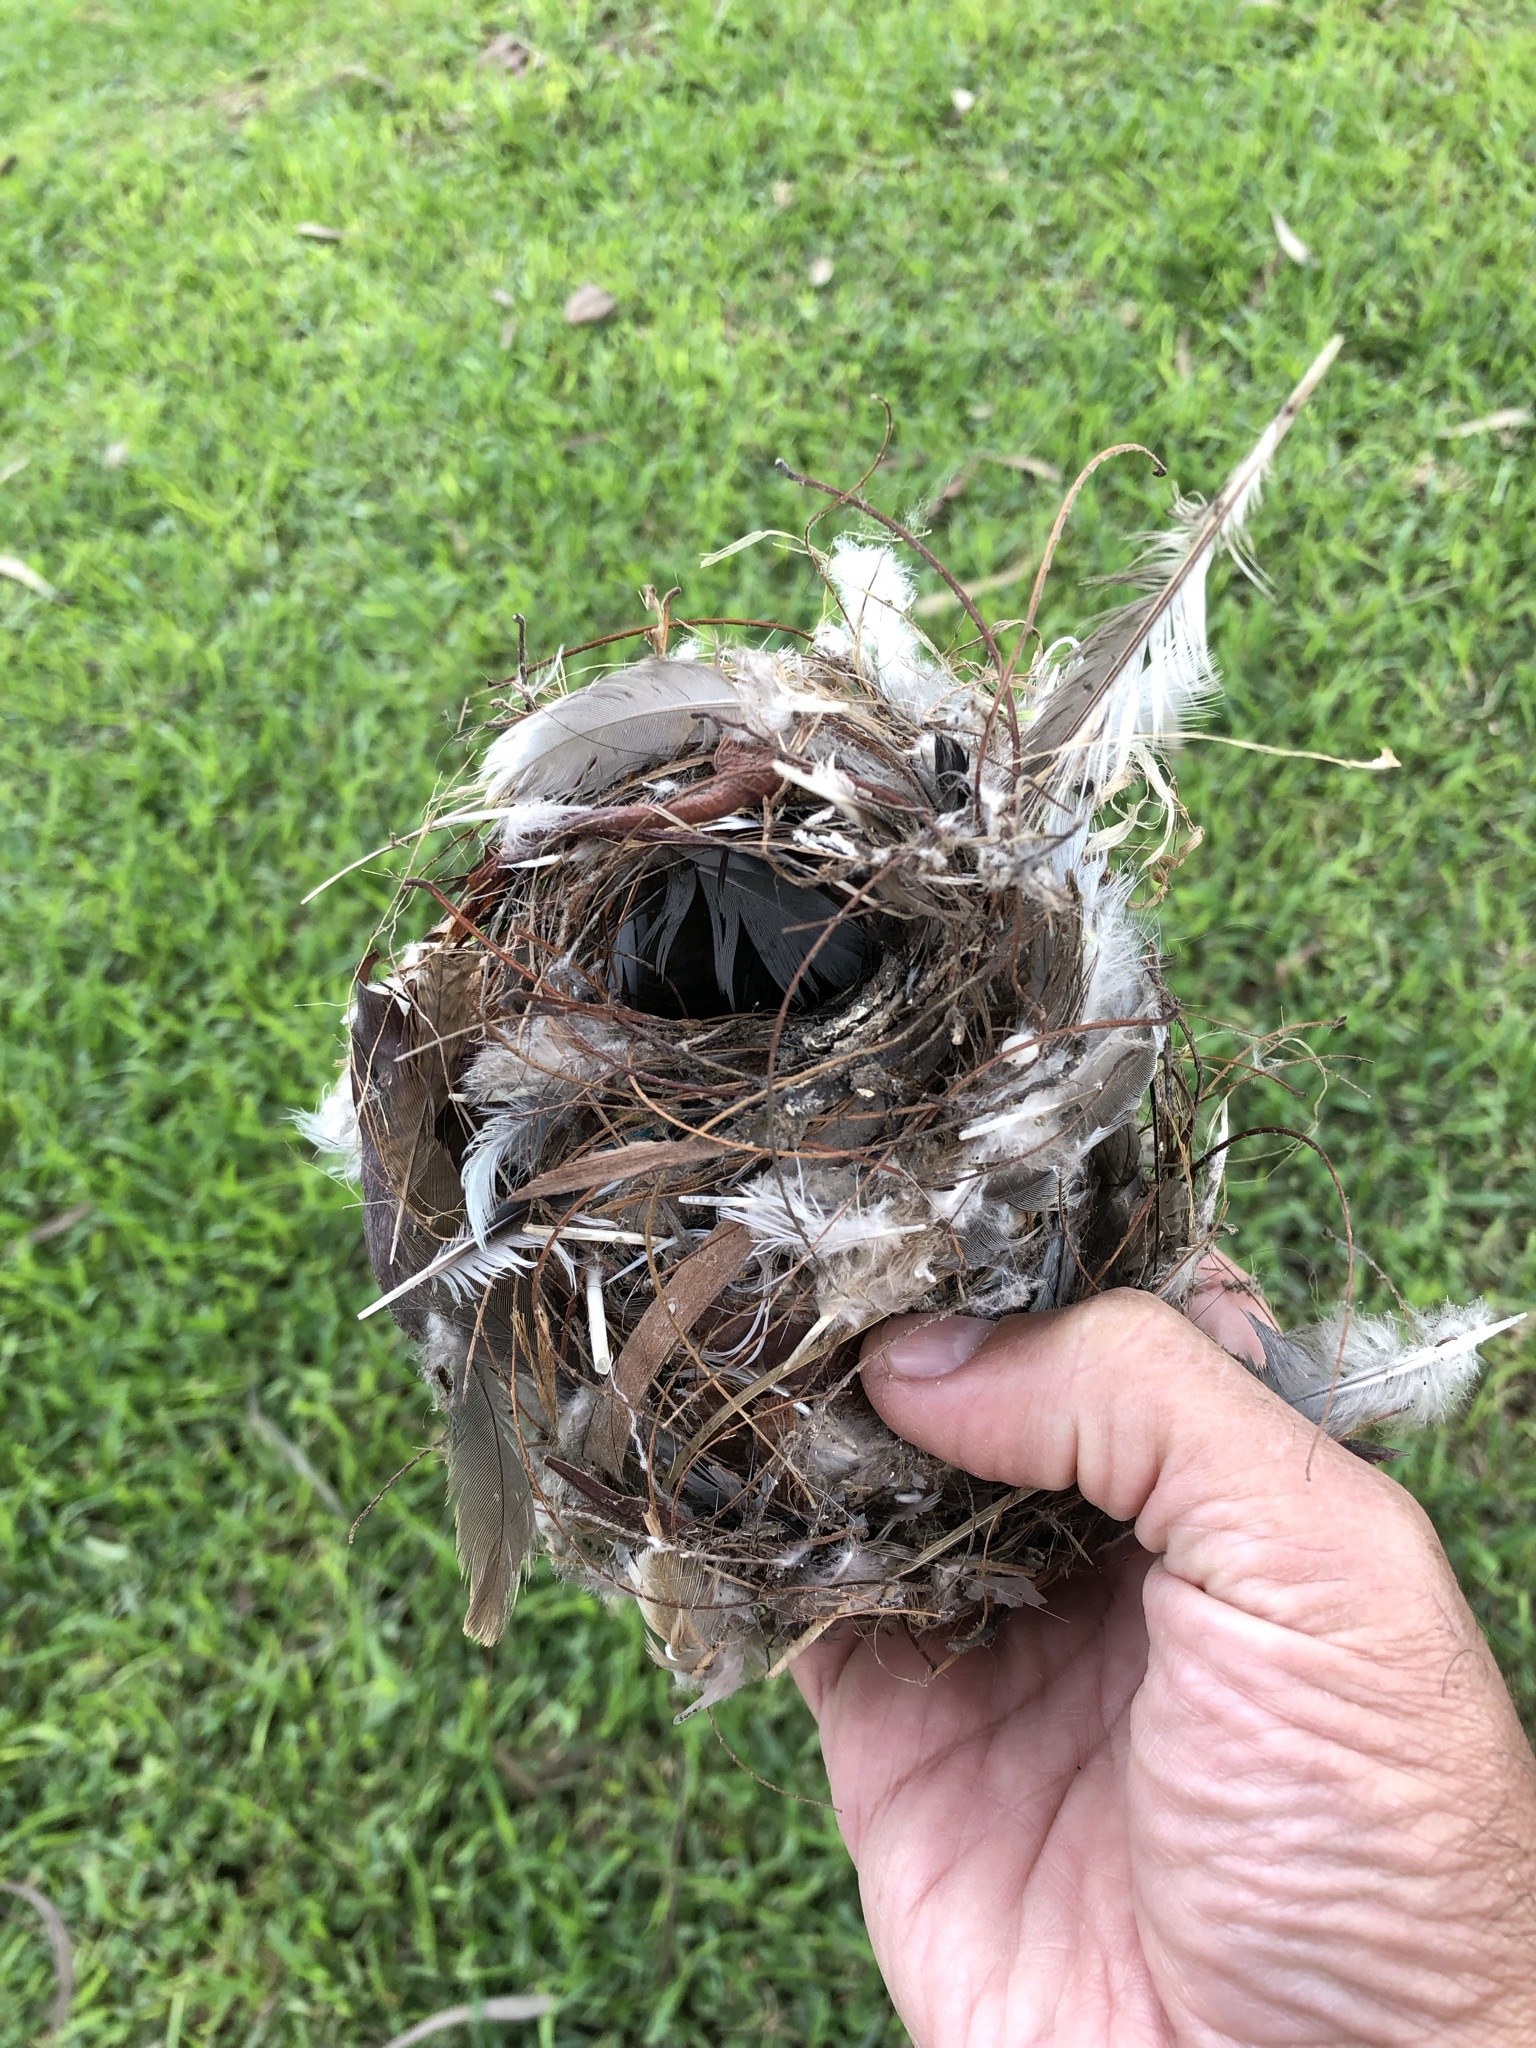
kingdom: Animalia
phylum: Chordata
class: Aves
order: Passeriformes
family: Thraupidae
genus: Coereba
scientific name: Coereba flaveola
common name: Bananaquit
